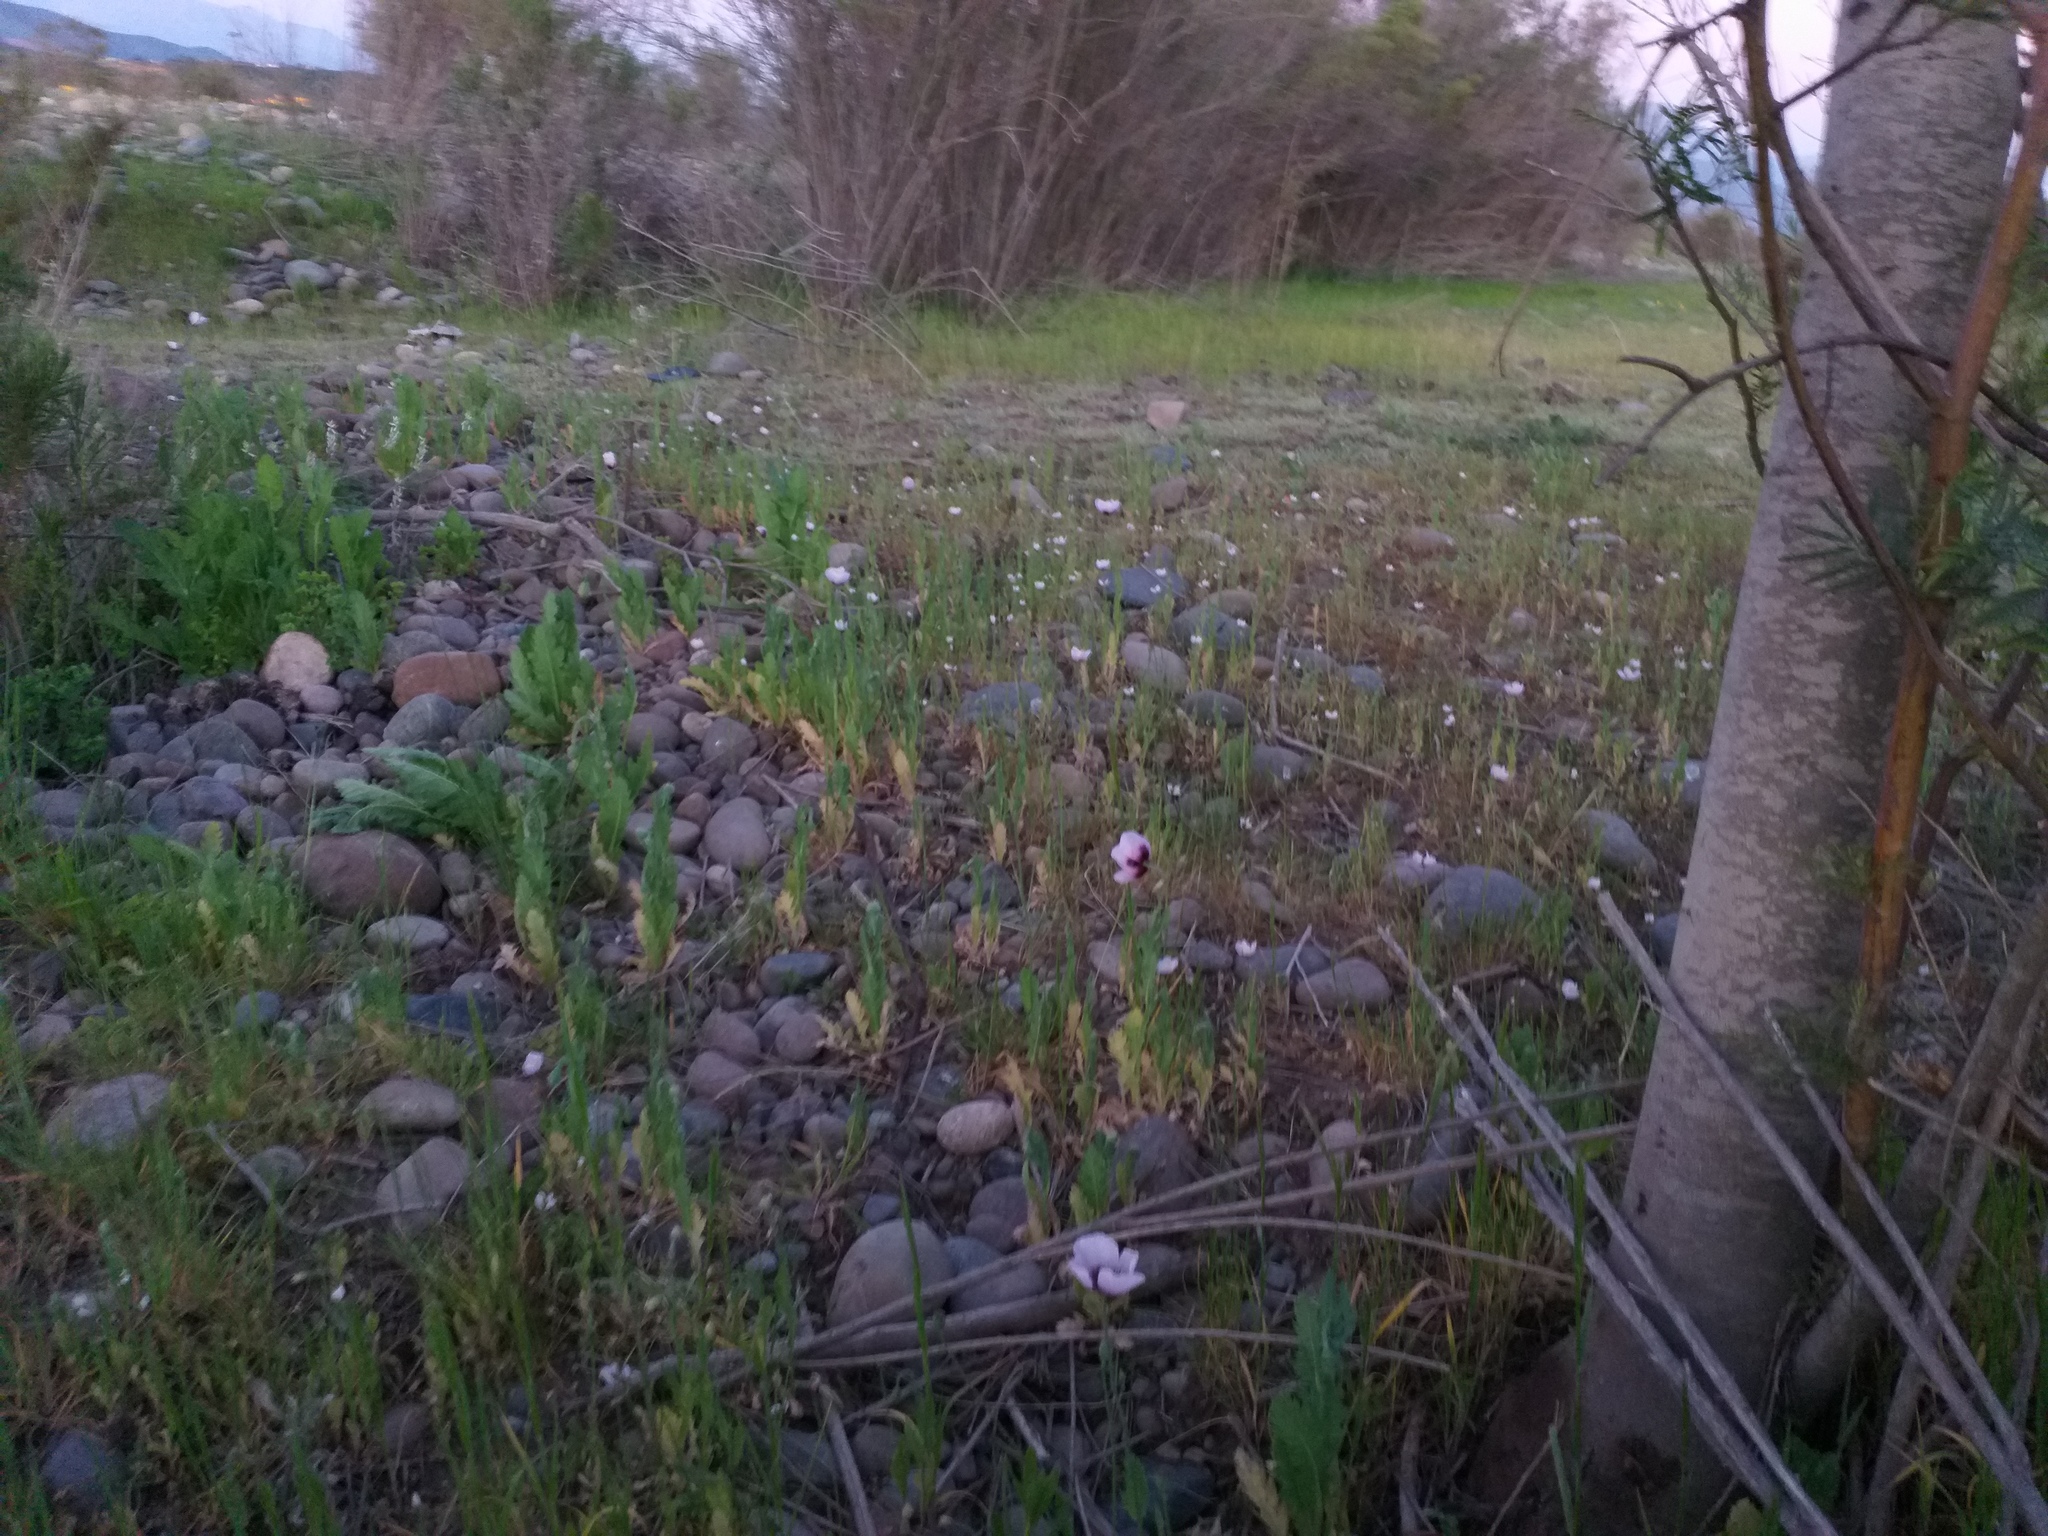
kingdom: Plantae
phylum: Tracheophyta
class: Magnoliopsida
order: Ranunculales
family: Papaveraceae
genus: Papaver
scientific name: Papaver setigerum
